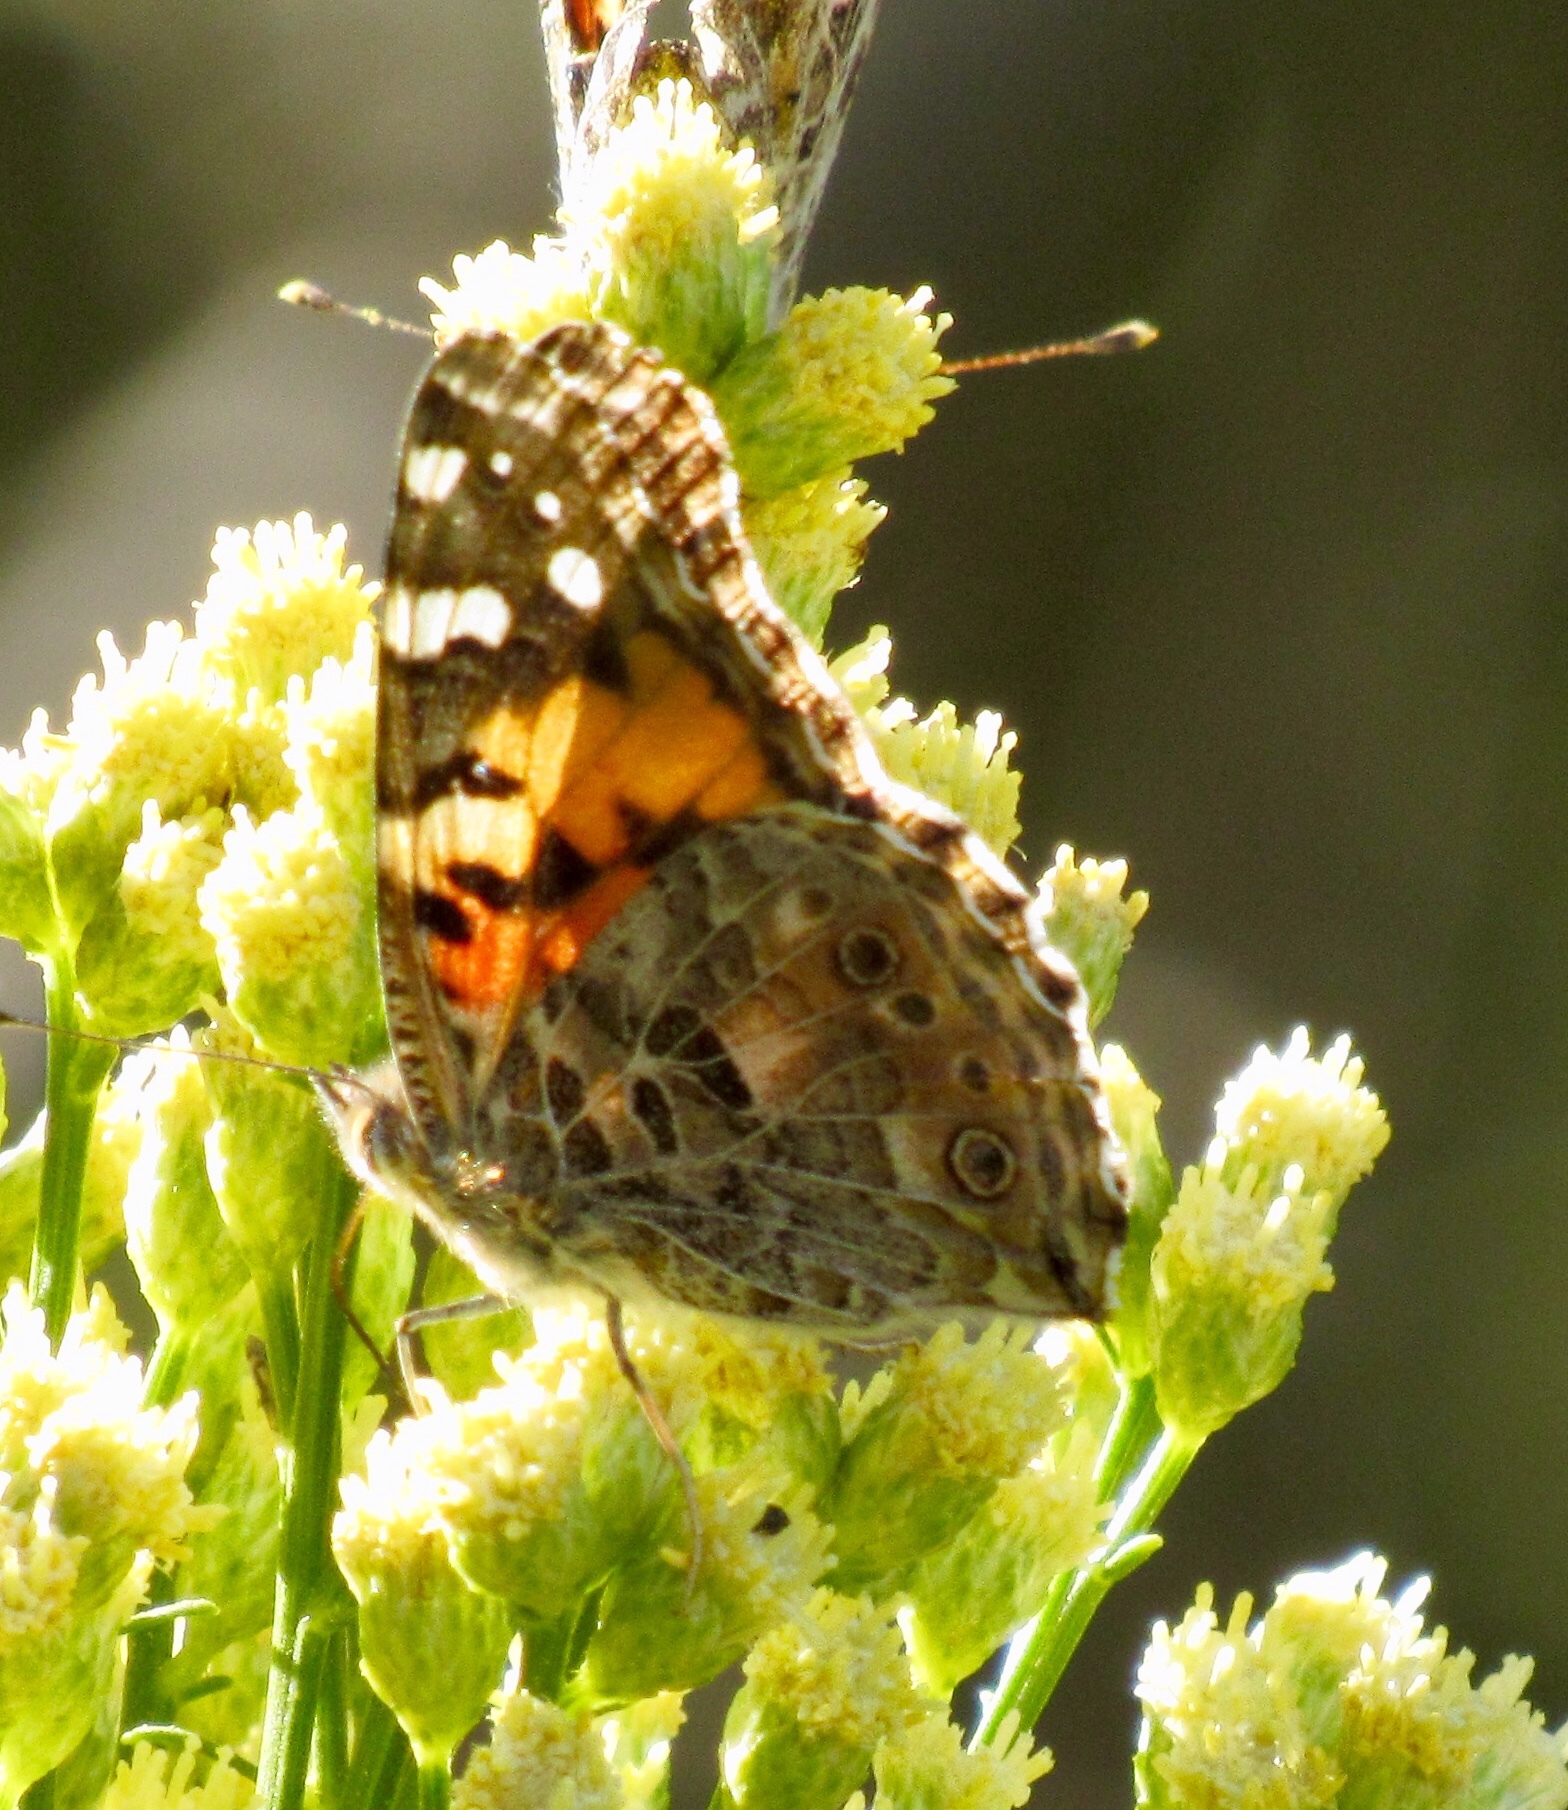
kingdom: Animalia
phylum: Arthropoda
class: Insecta
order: Lepidoptera
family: Nymphalidae
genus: Vanessa
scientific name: Vanessa cardui
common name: Painted lady
